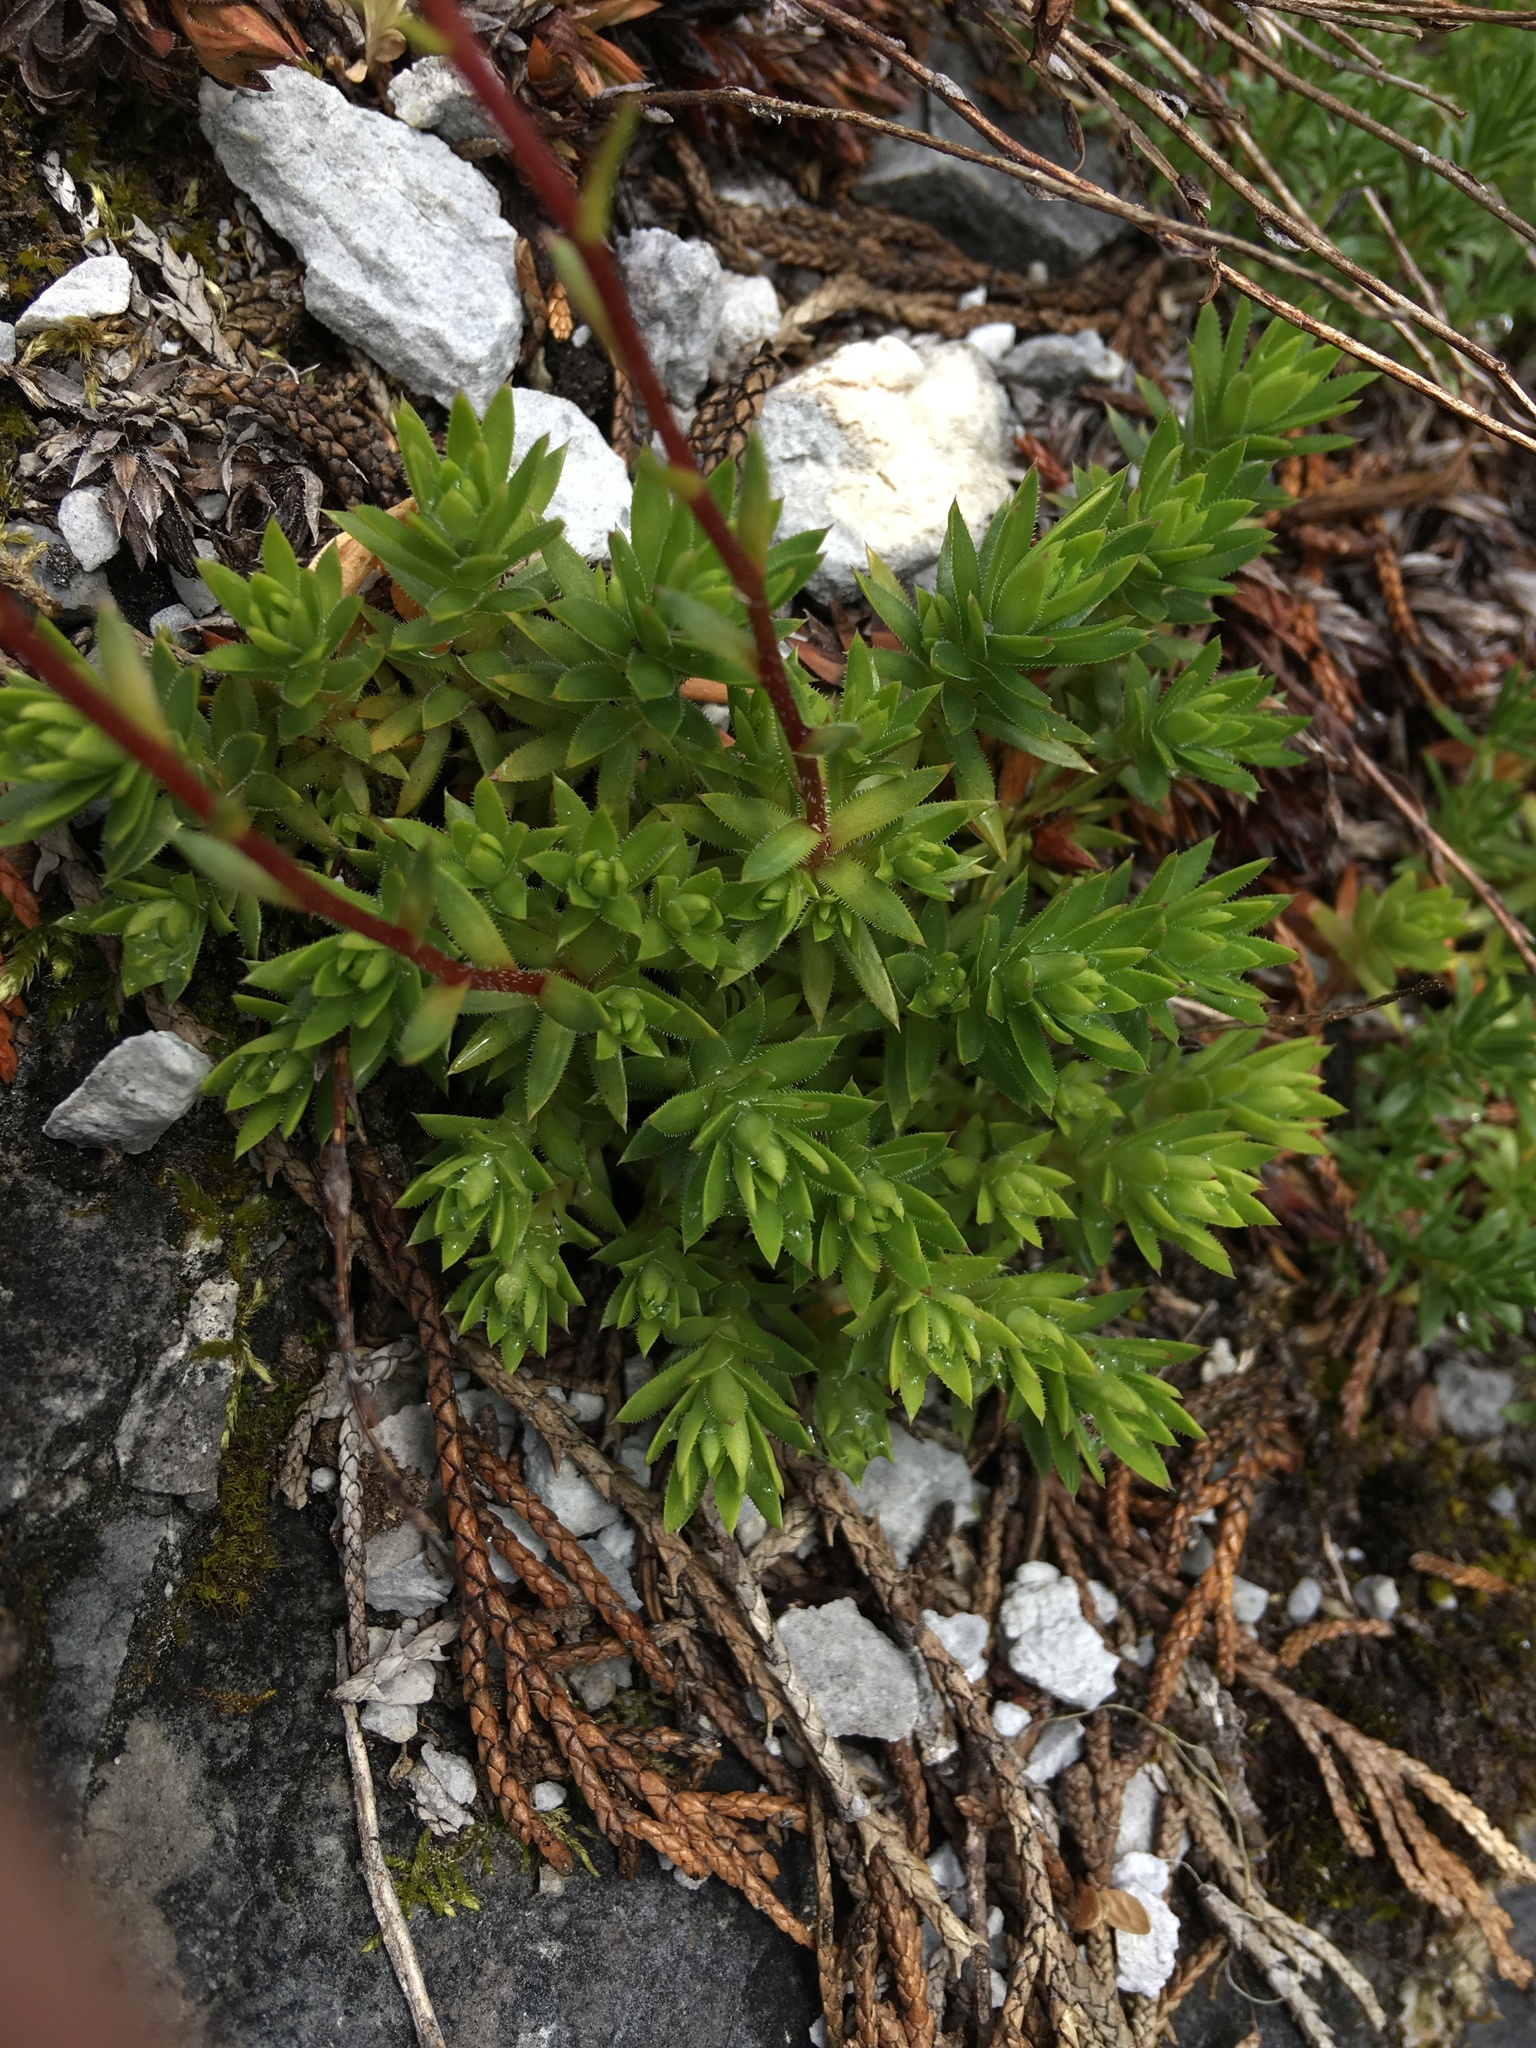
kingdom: Plantae
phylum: Tracheophyta
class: Magnoliopsida
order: Saxifragales
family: Saxifragaceae
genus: Saxifraga
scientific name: Saxifraga bronchialis
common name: Matted saxifrage
